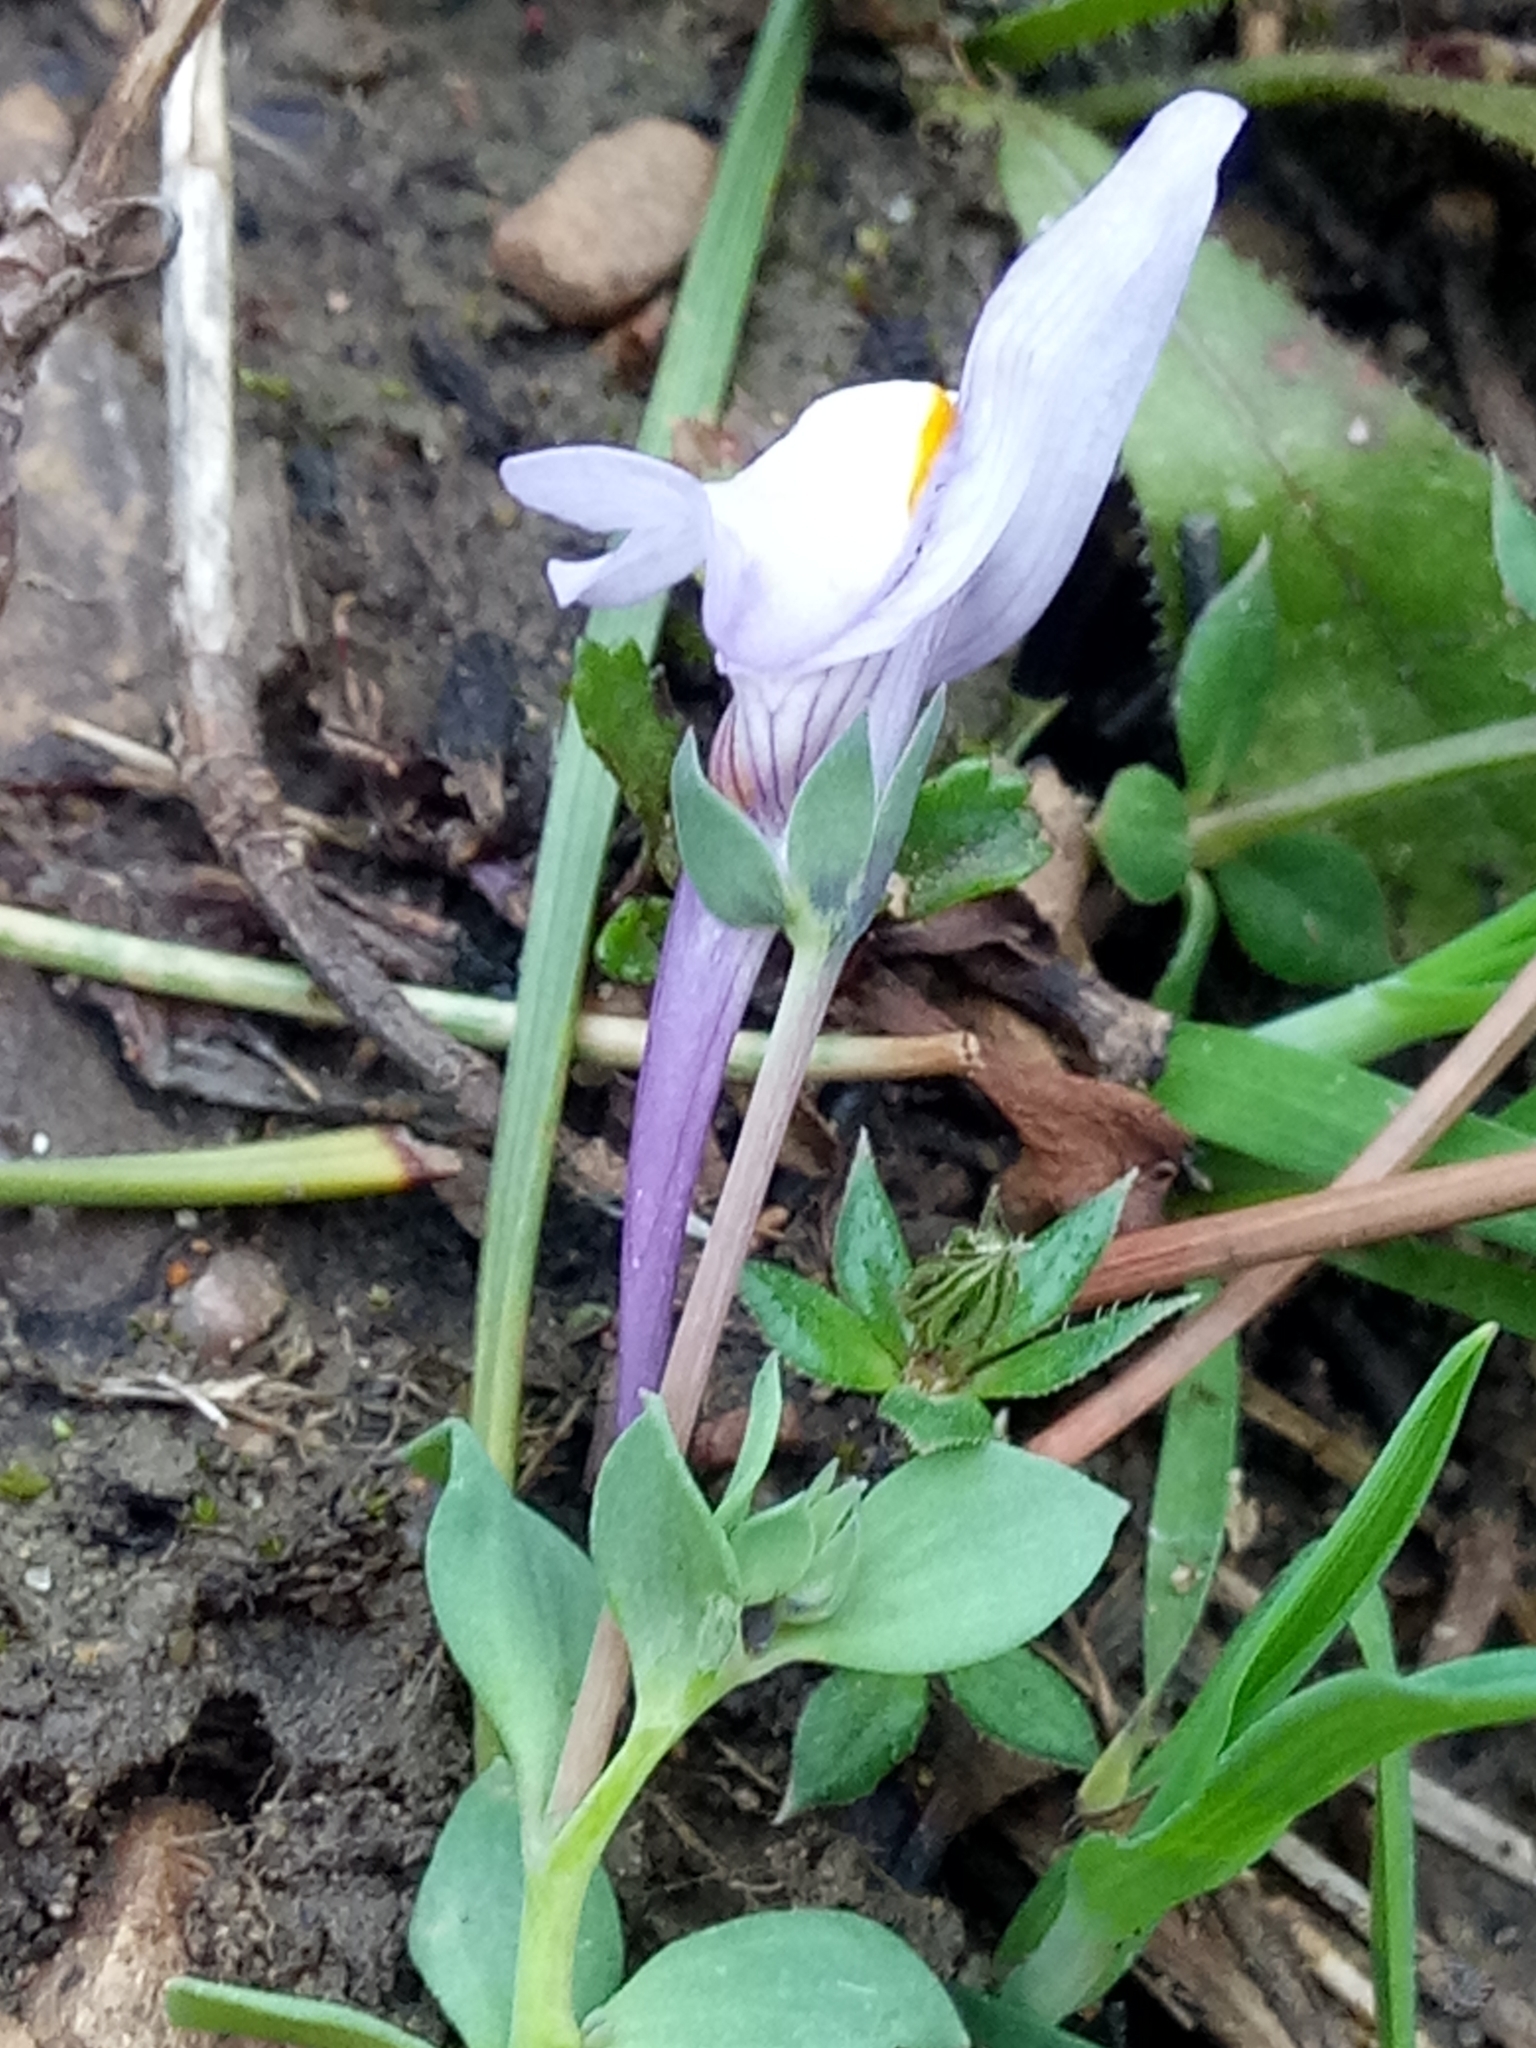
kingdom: Plantae
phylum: Tracheophyta
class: Magnoliopsida
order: Lamiales
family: Plantaginaceae
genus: Linaria
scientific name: Linaria reflexa
